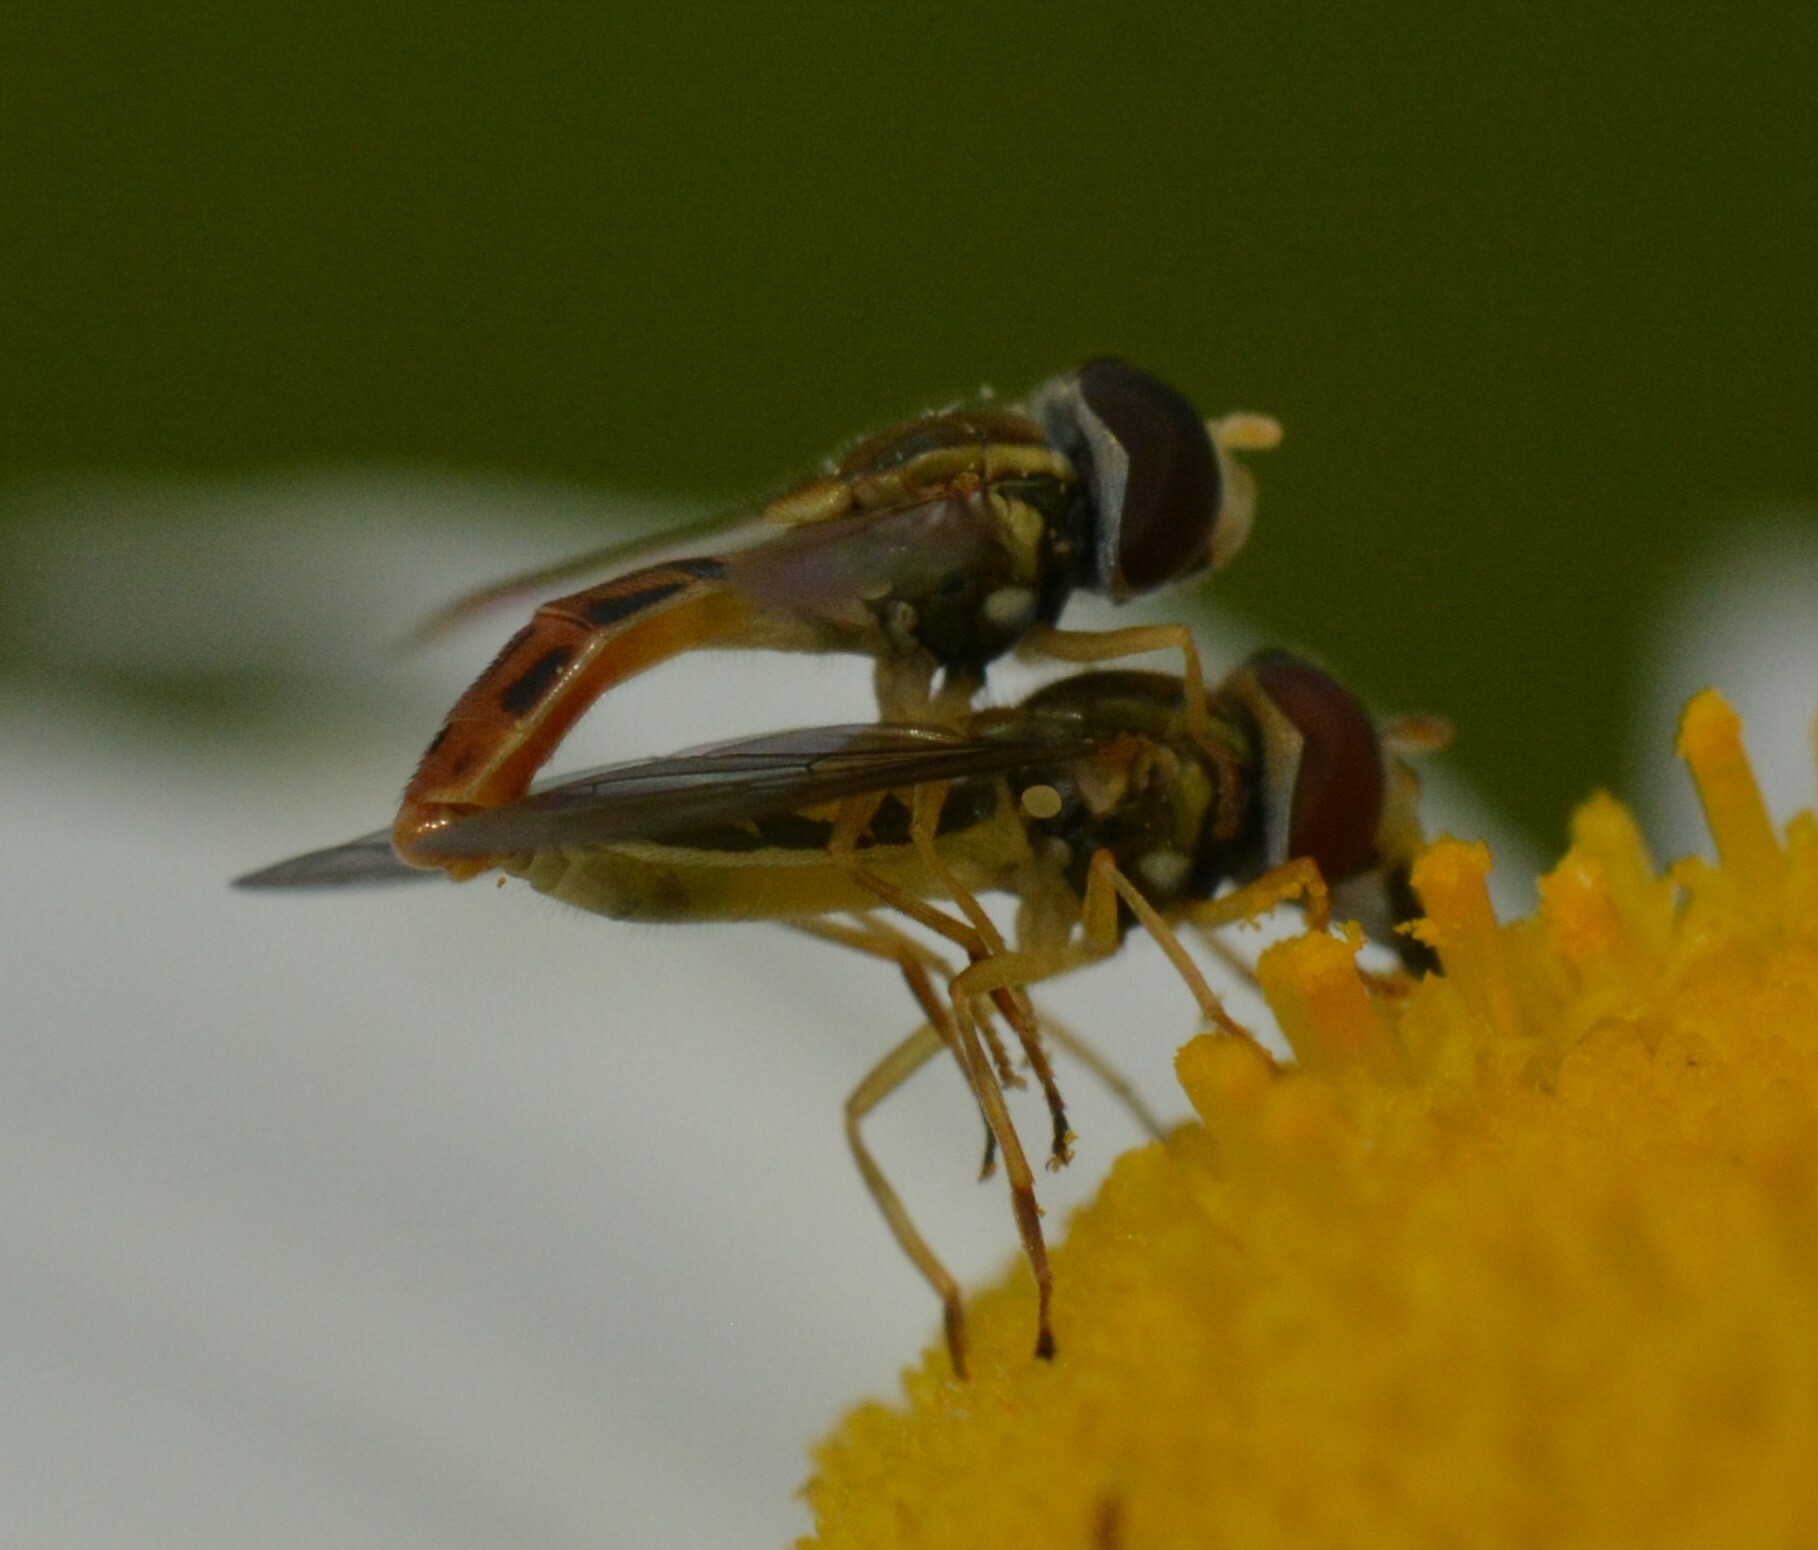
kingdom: Animalia
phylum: Arthropoda
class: Insecta
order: Diptera
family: Syrphidae
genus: Toxomerus
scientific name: Toxomerus marginatus
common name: Syrphid fly
